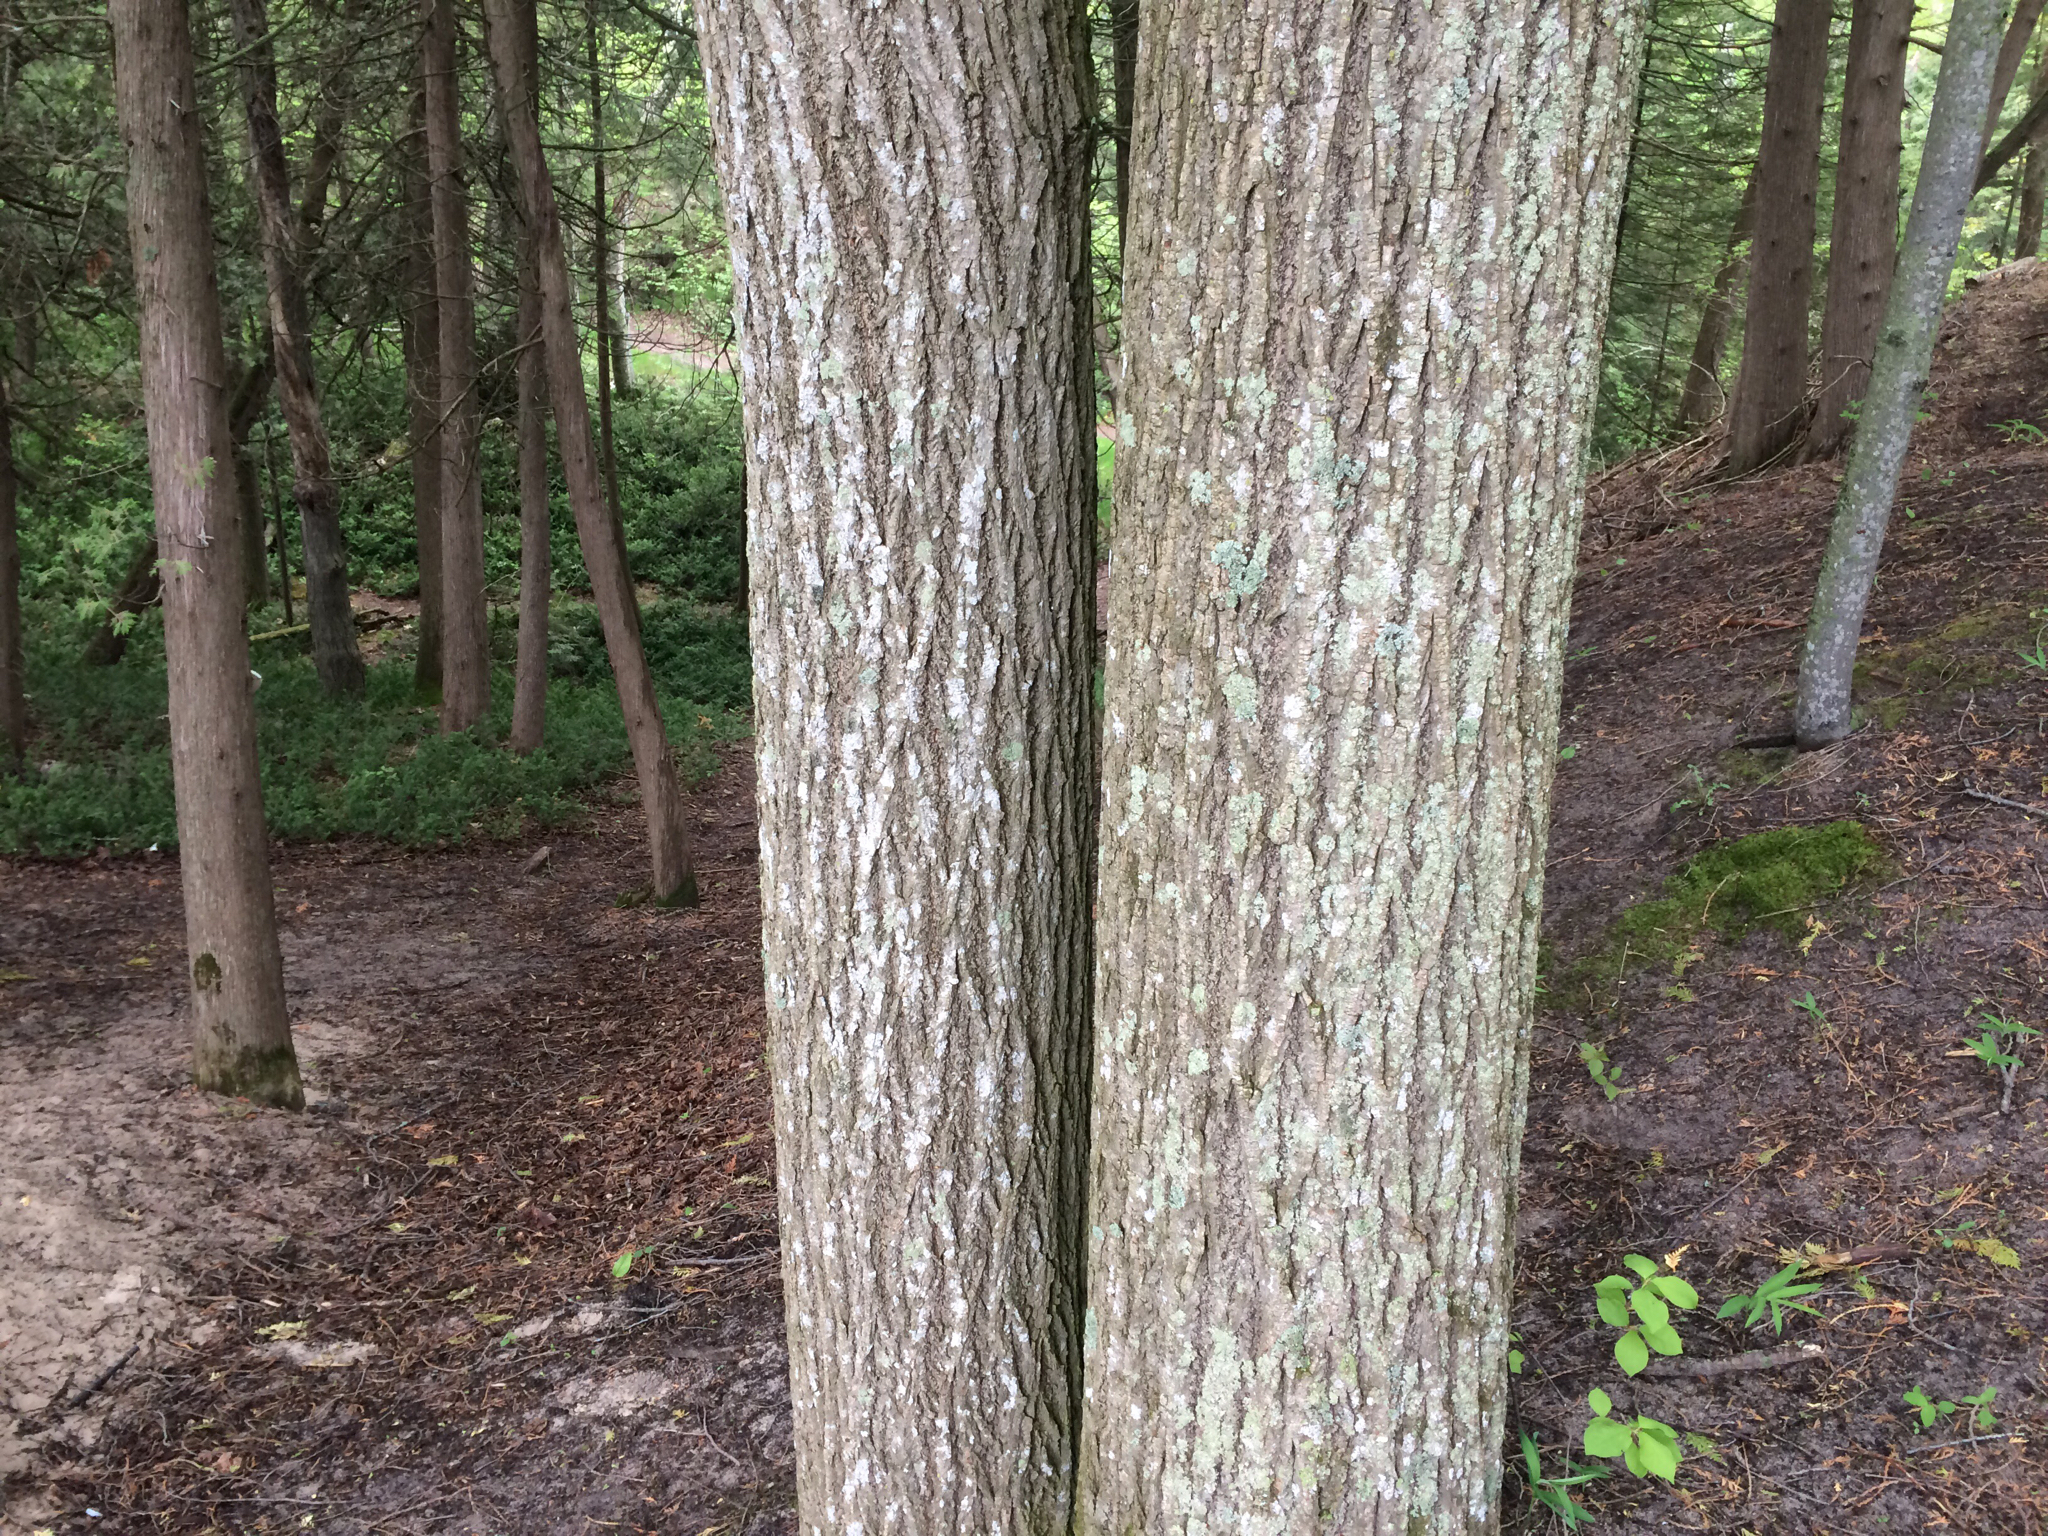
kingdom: Plantae
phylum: Tracheophyta
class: Magnoliopsida
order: Malvales
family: Malvaceae
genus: Tilia
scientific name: Tilia americana
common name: Basswood
